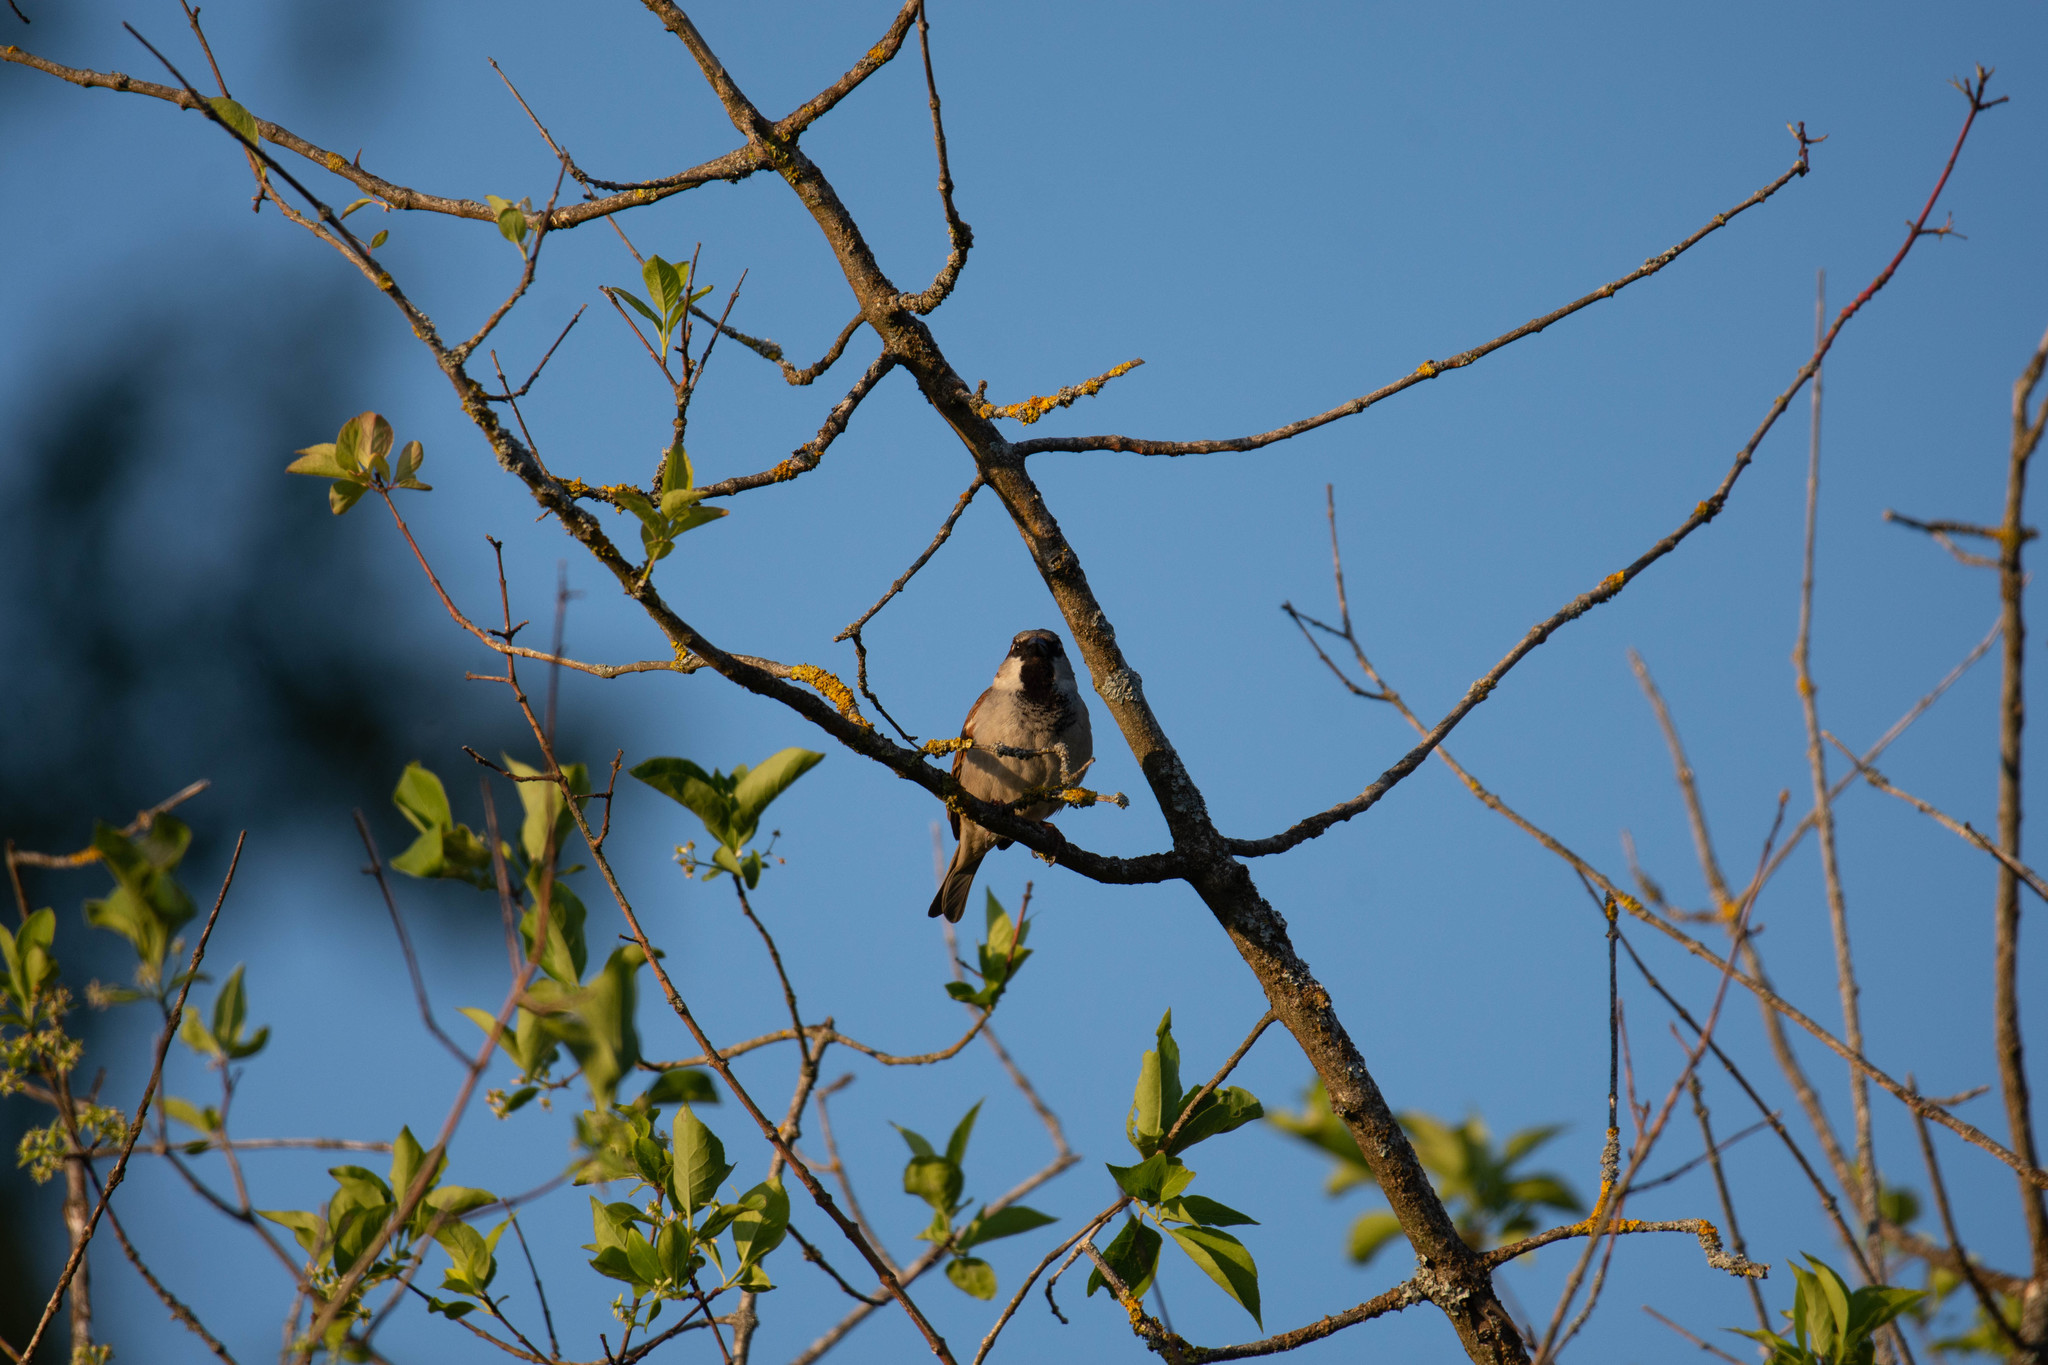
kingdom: Animalia
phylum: Chordata
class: Aves
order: Passeriformes
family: Passeridae
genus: Passer
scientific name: Passer domesticus
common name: House sparrow
